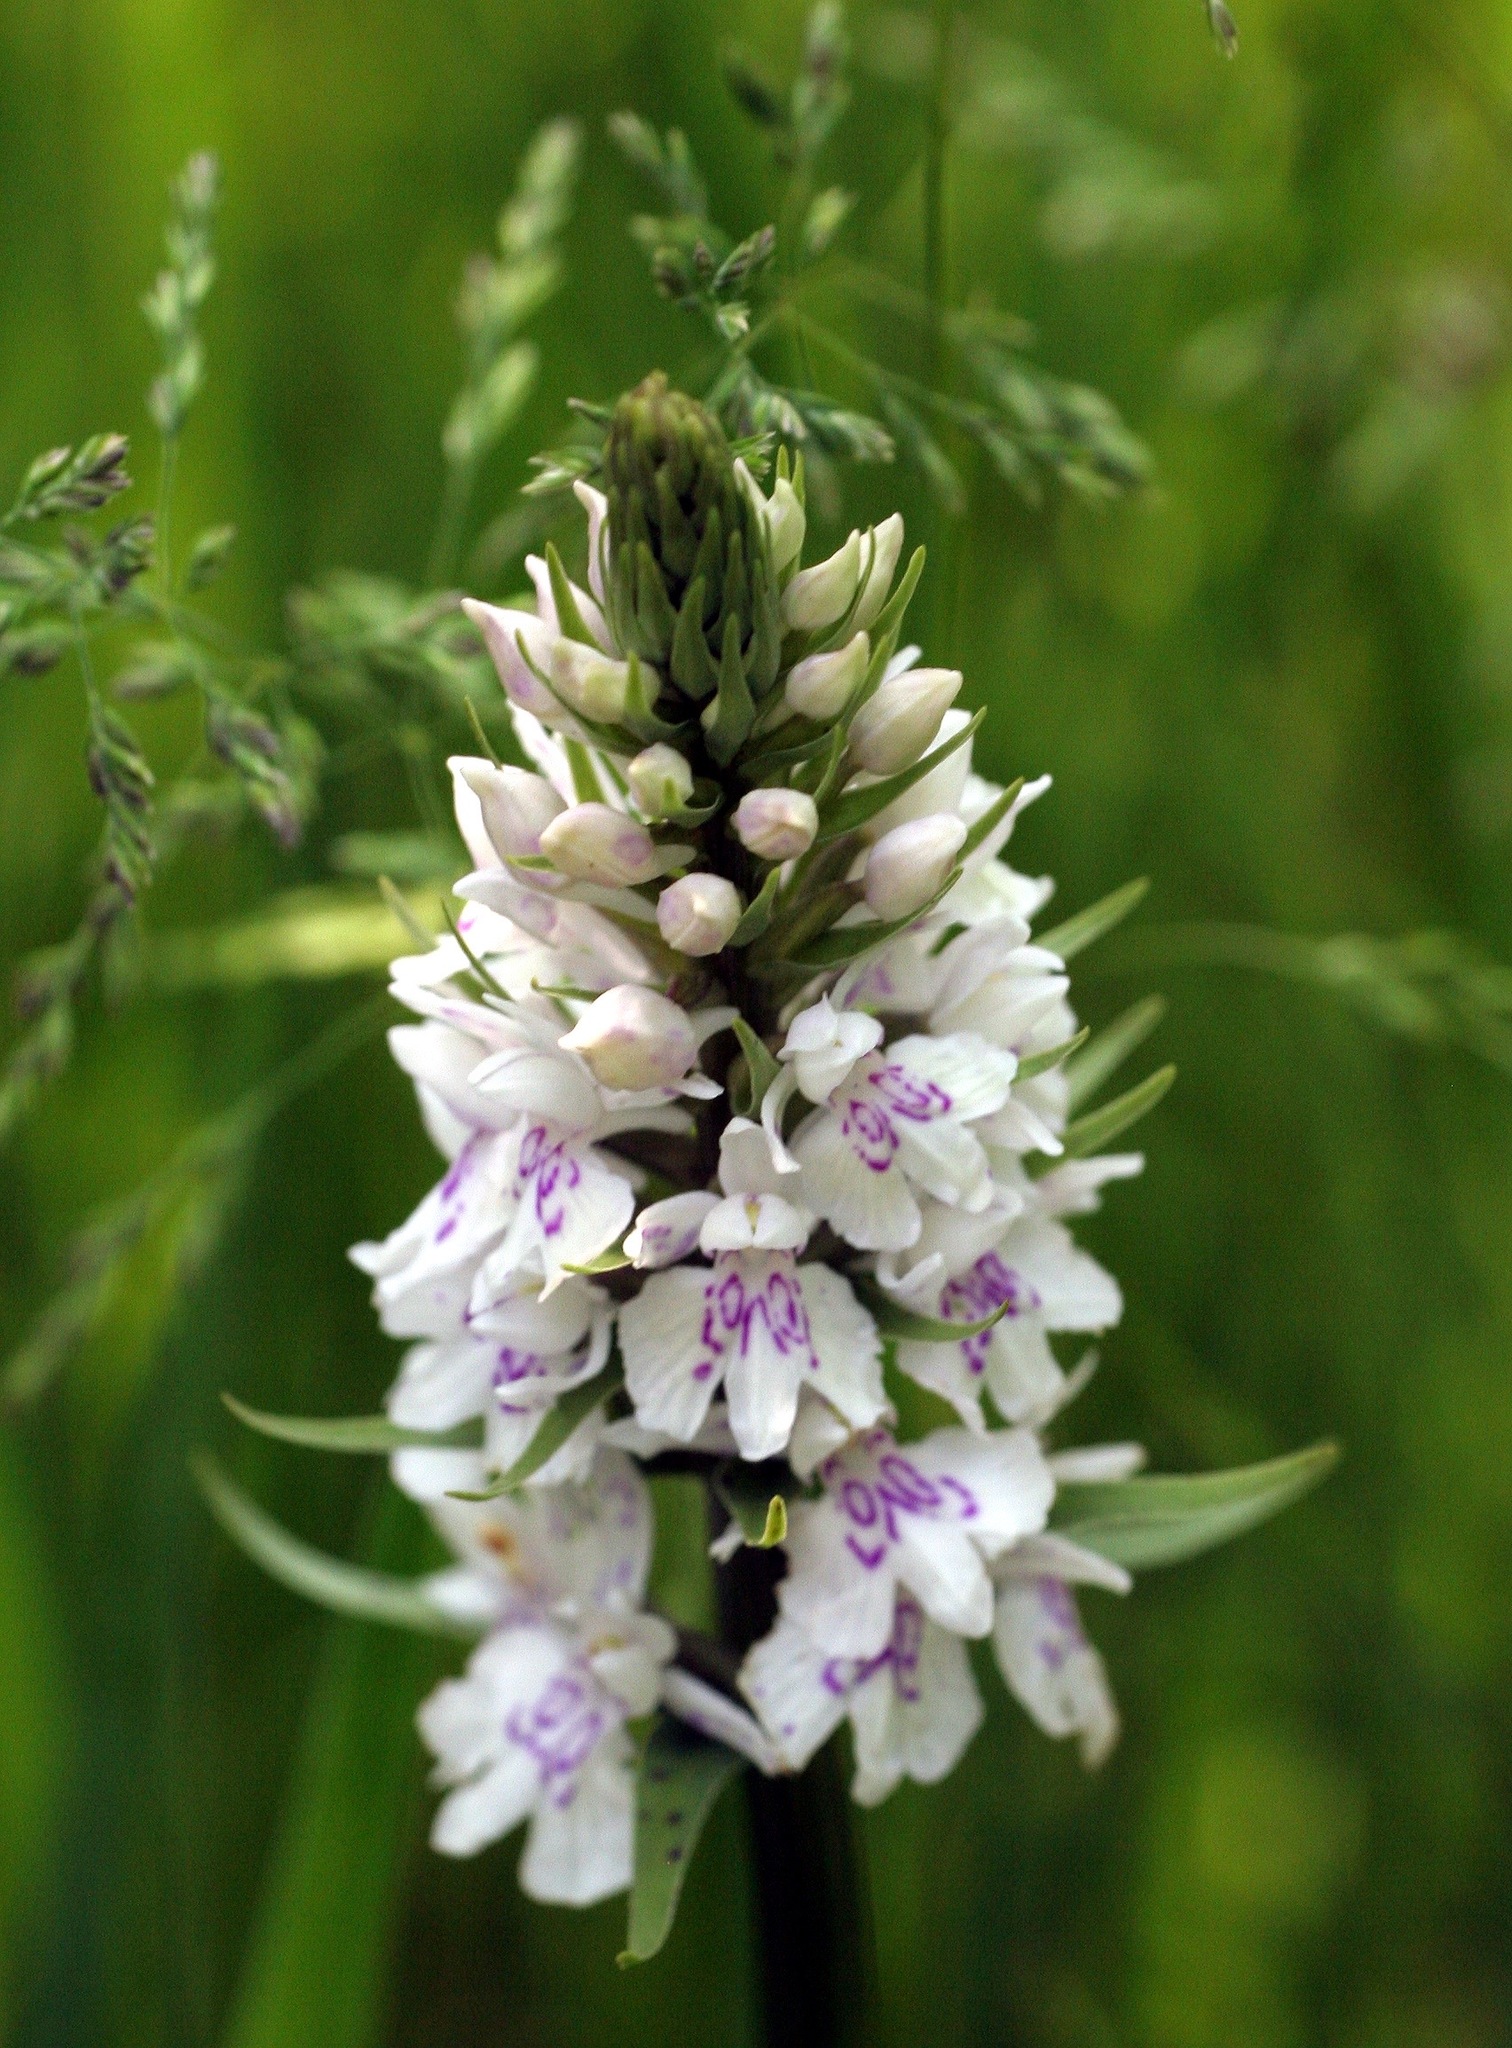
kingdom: Plantae
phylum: Tracheophyta
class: Liliopsida
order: Asparagales
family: Orchidaceae
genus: Dactylorhiza
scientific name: Dactylorhiza maculata
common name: Heath spotted-orchid
